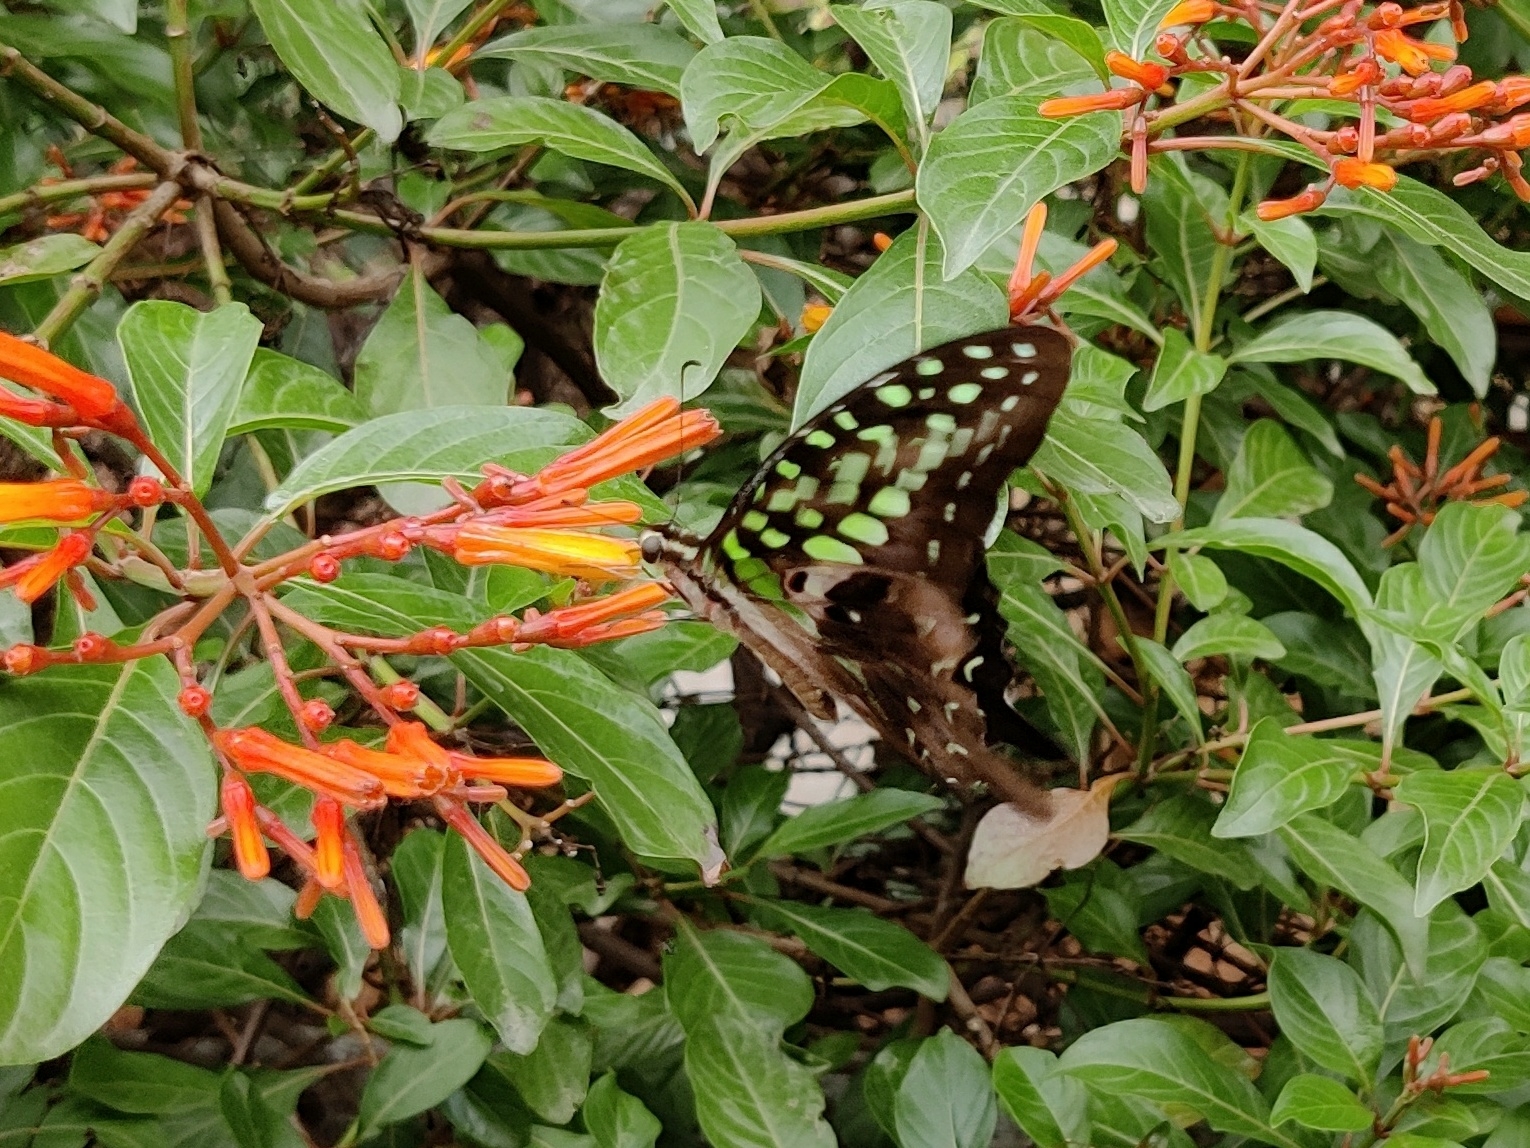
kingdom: Animalia
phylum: Arthropoda
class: Insecta
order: Lepidoptera
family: Papilionidae
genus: Graphium
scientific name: Graphium agamemnon
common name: Tailed jay
